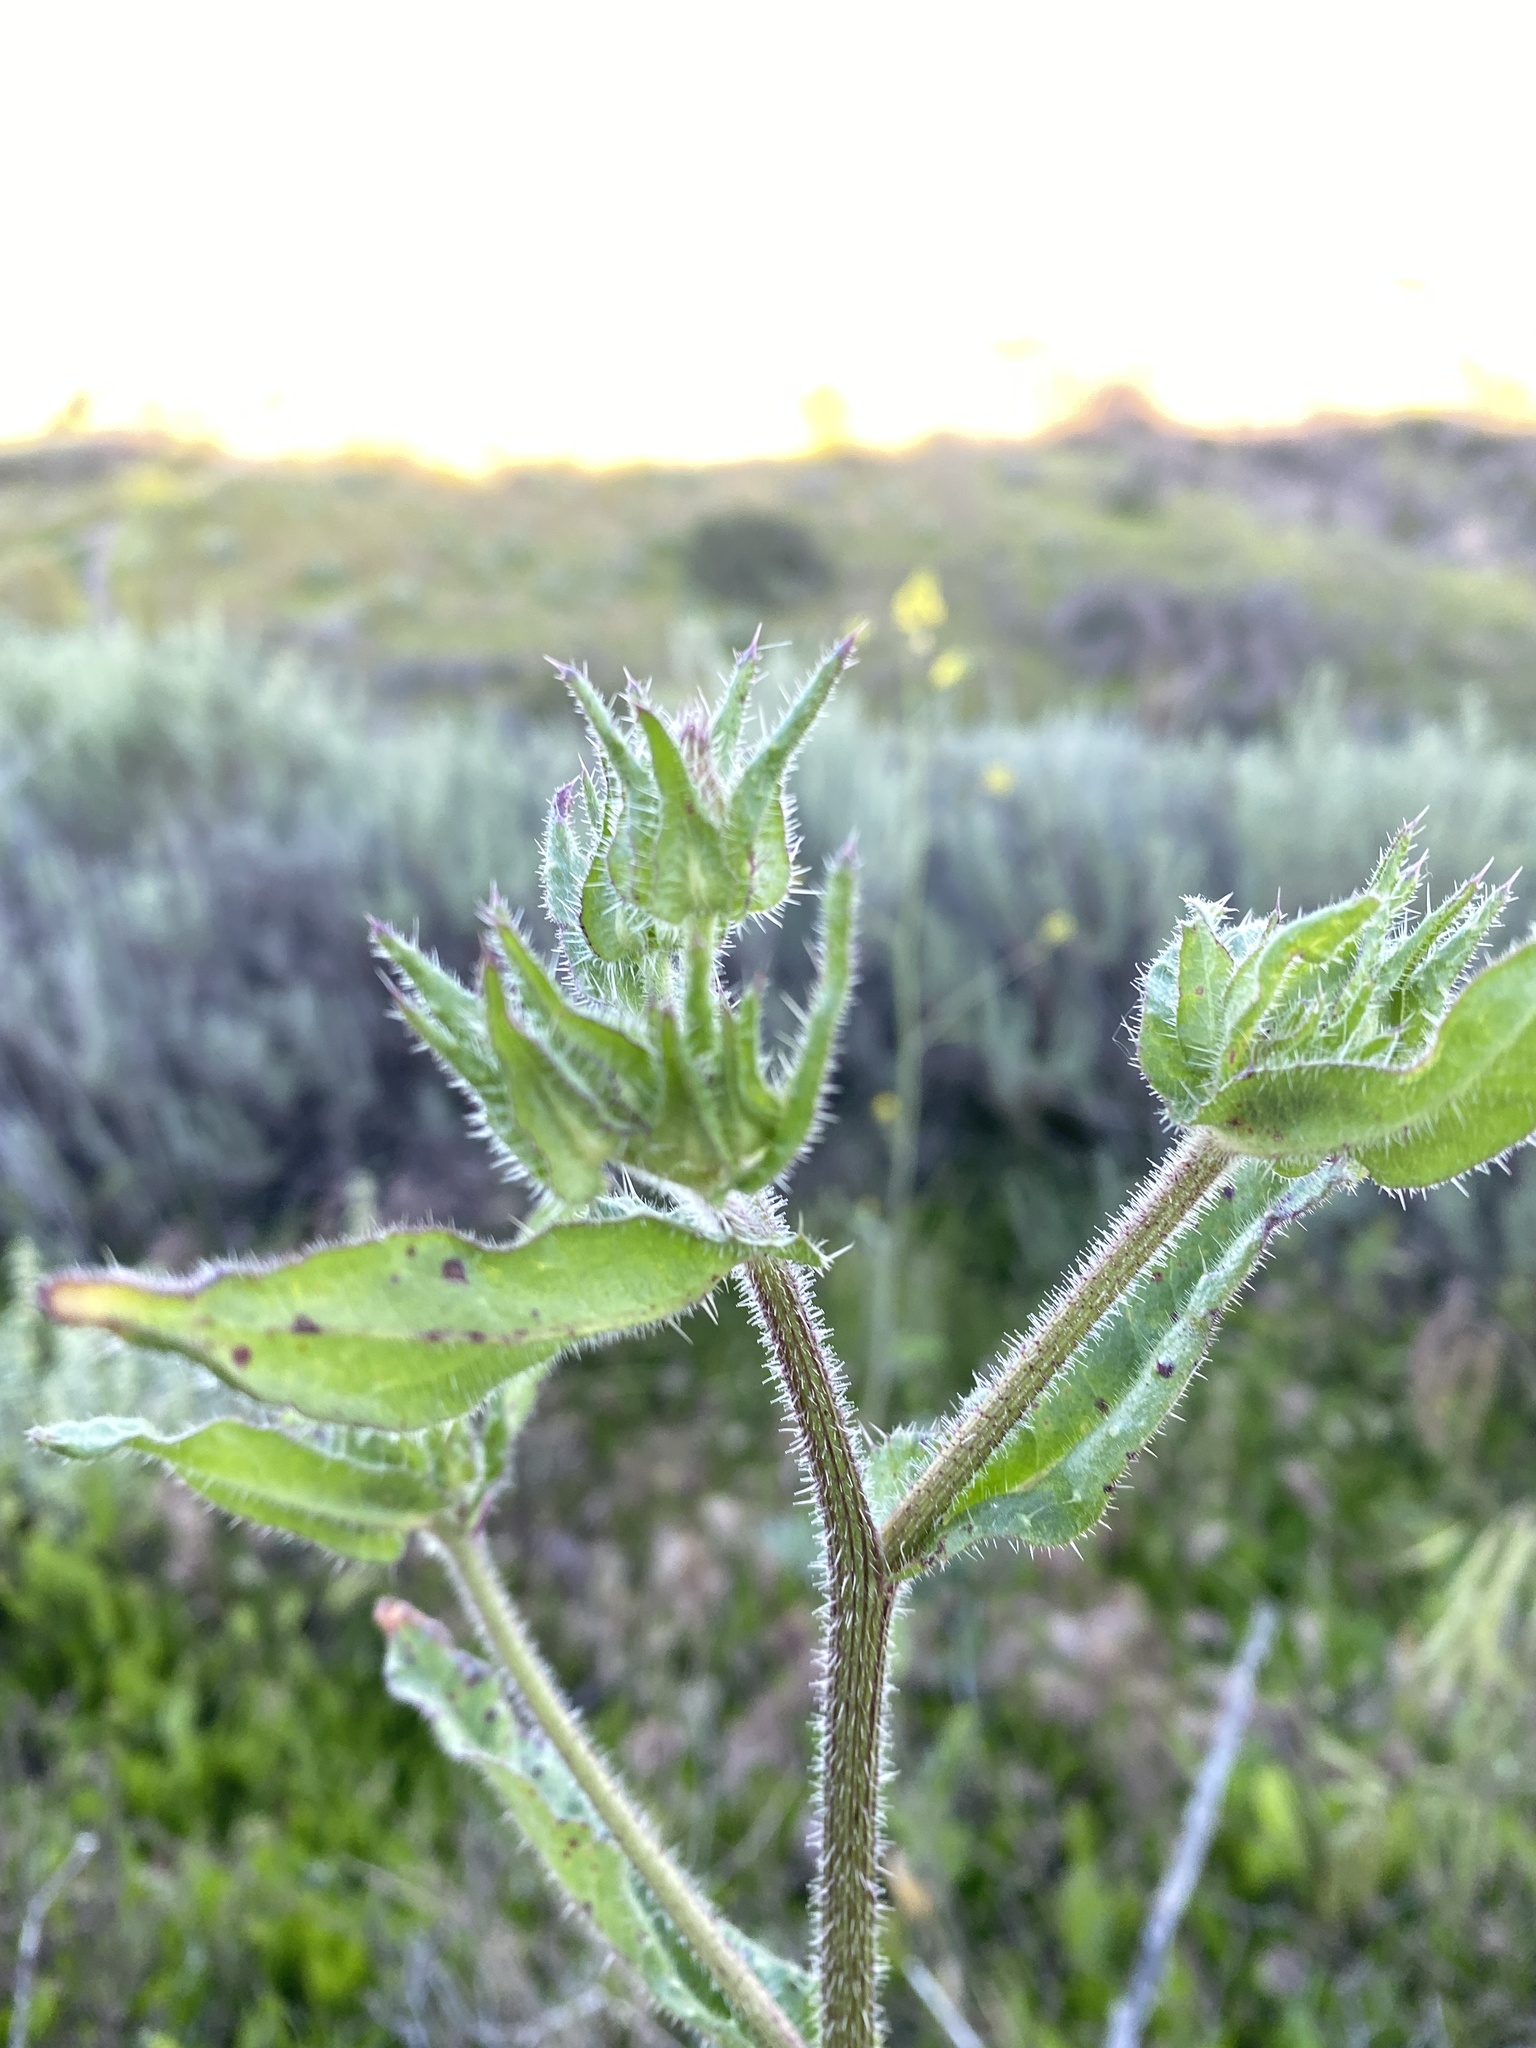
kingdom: Plantae
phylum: Tracheophyta
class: Magnoliopsida
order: Asterales
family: Asteraceae
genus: Helminthotheca
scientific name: Helminthotheca echioides
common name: Ox-tongue
